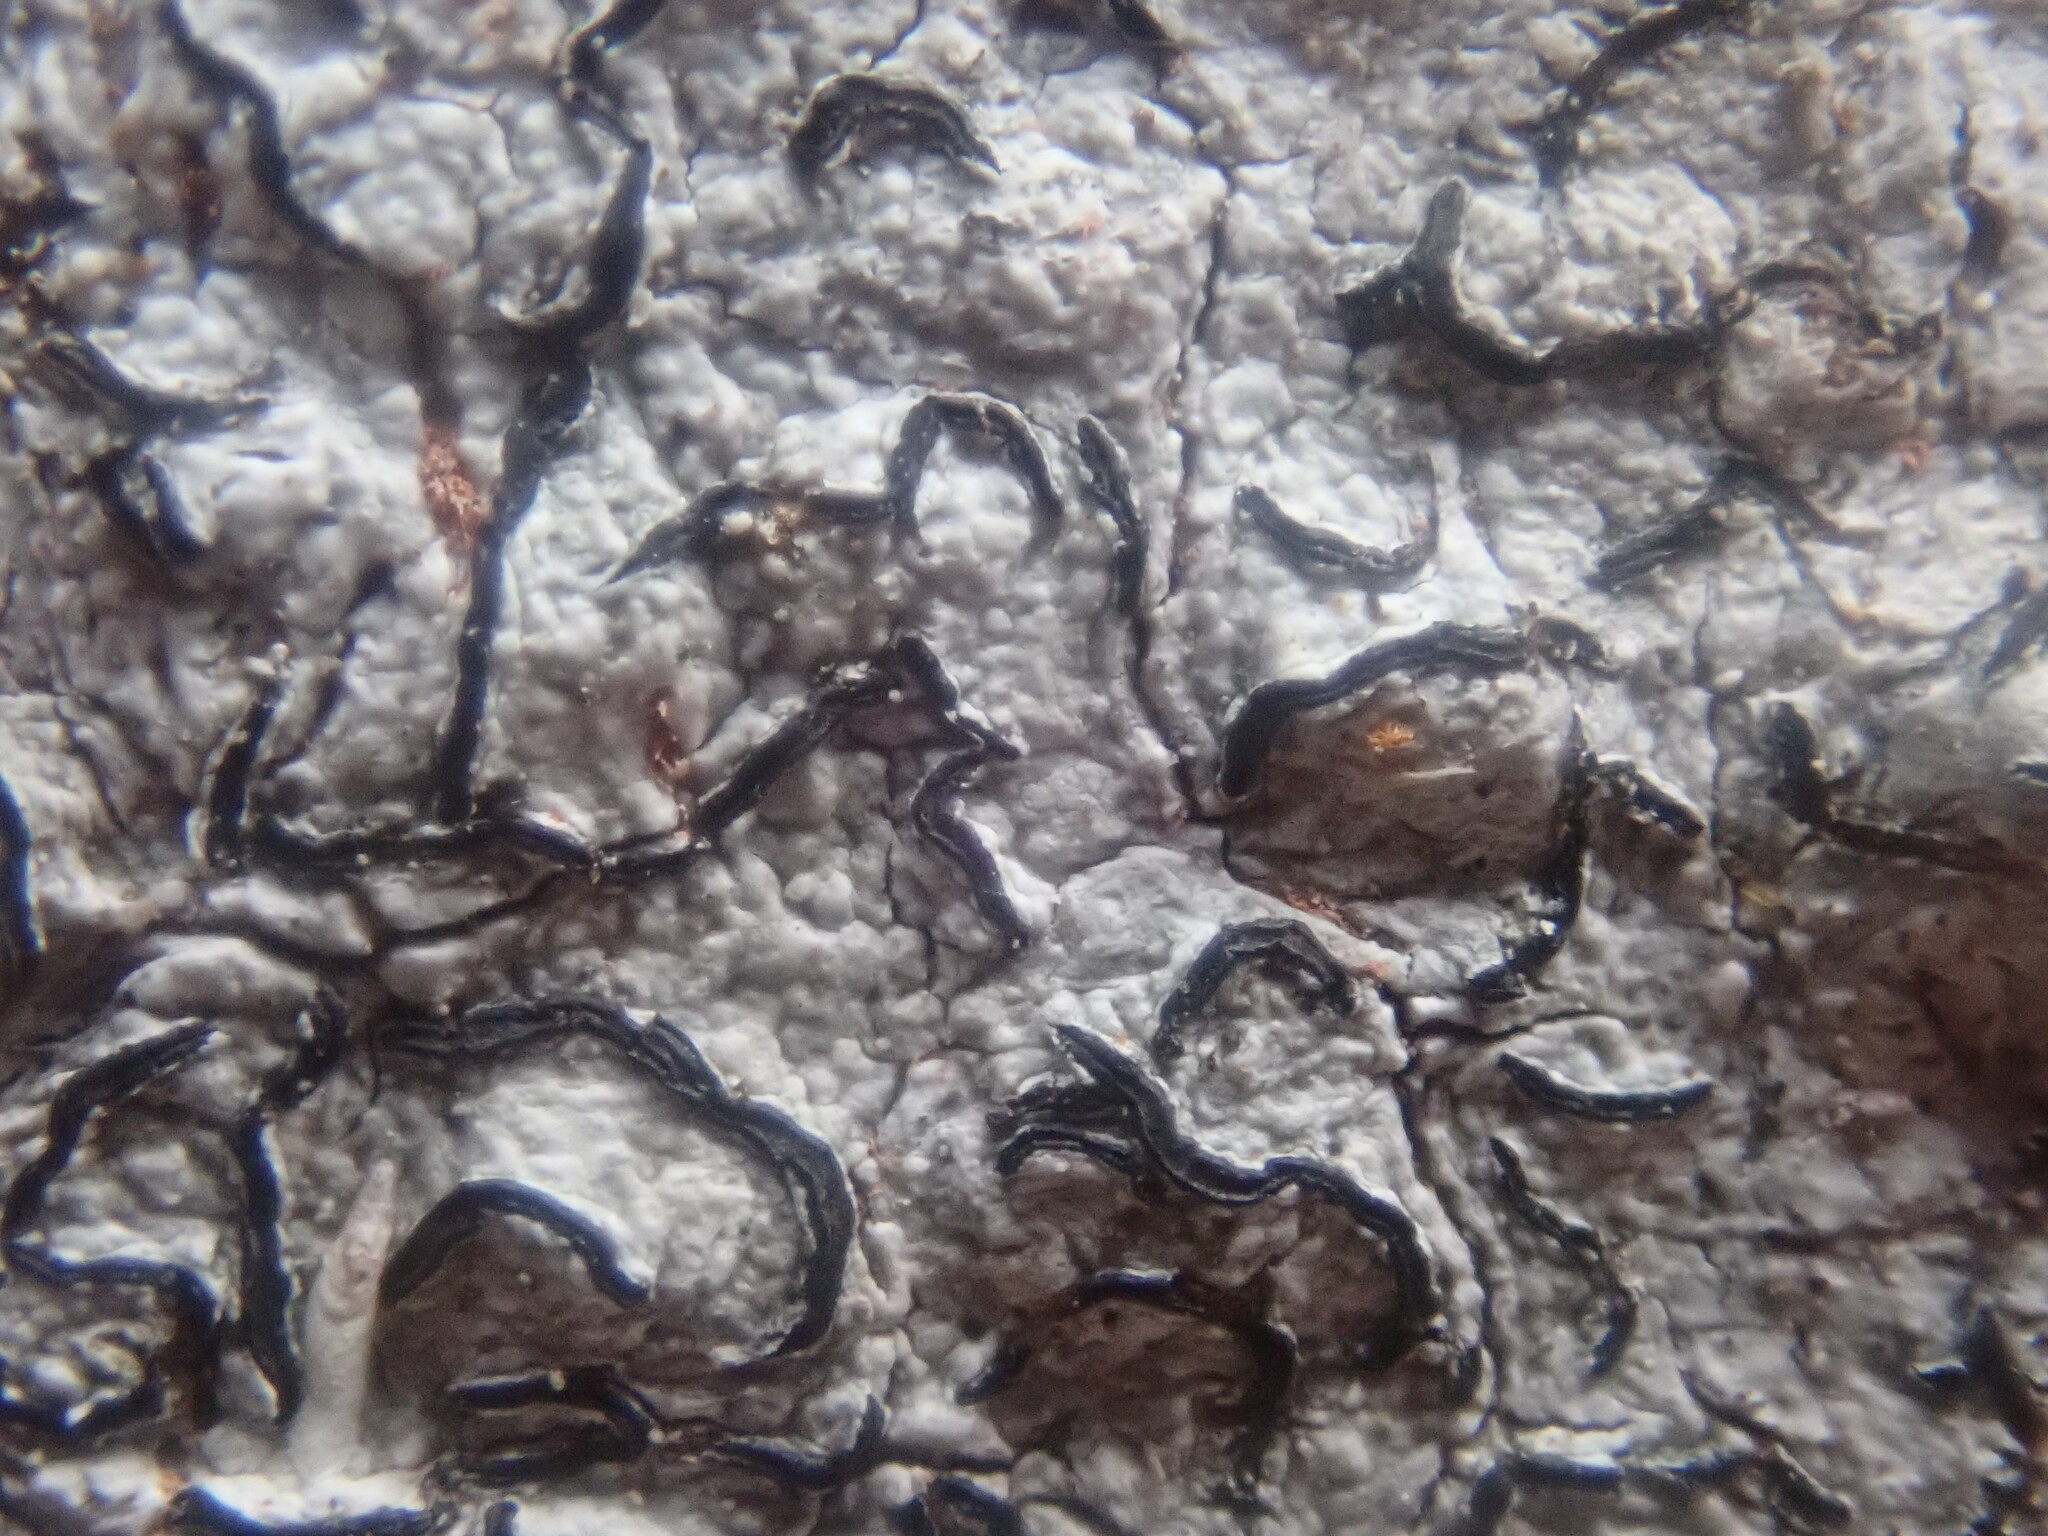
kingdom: Fungi
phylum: Ascomycota
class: Lecanoromycetes
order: Ostropales
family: Graphidaceae
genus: Graphis
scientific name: Graphis scripta
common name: Script lichen
